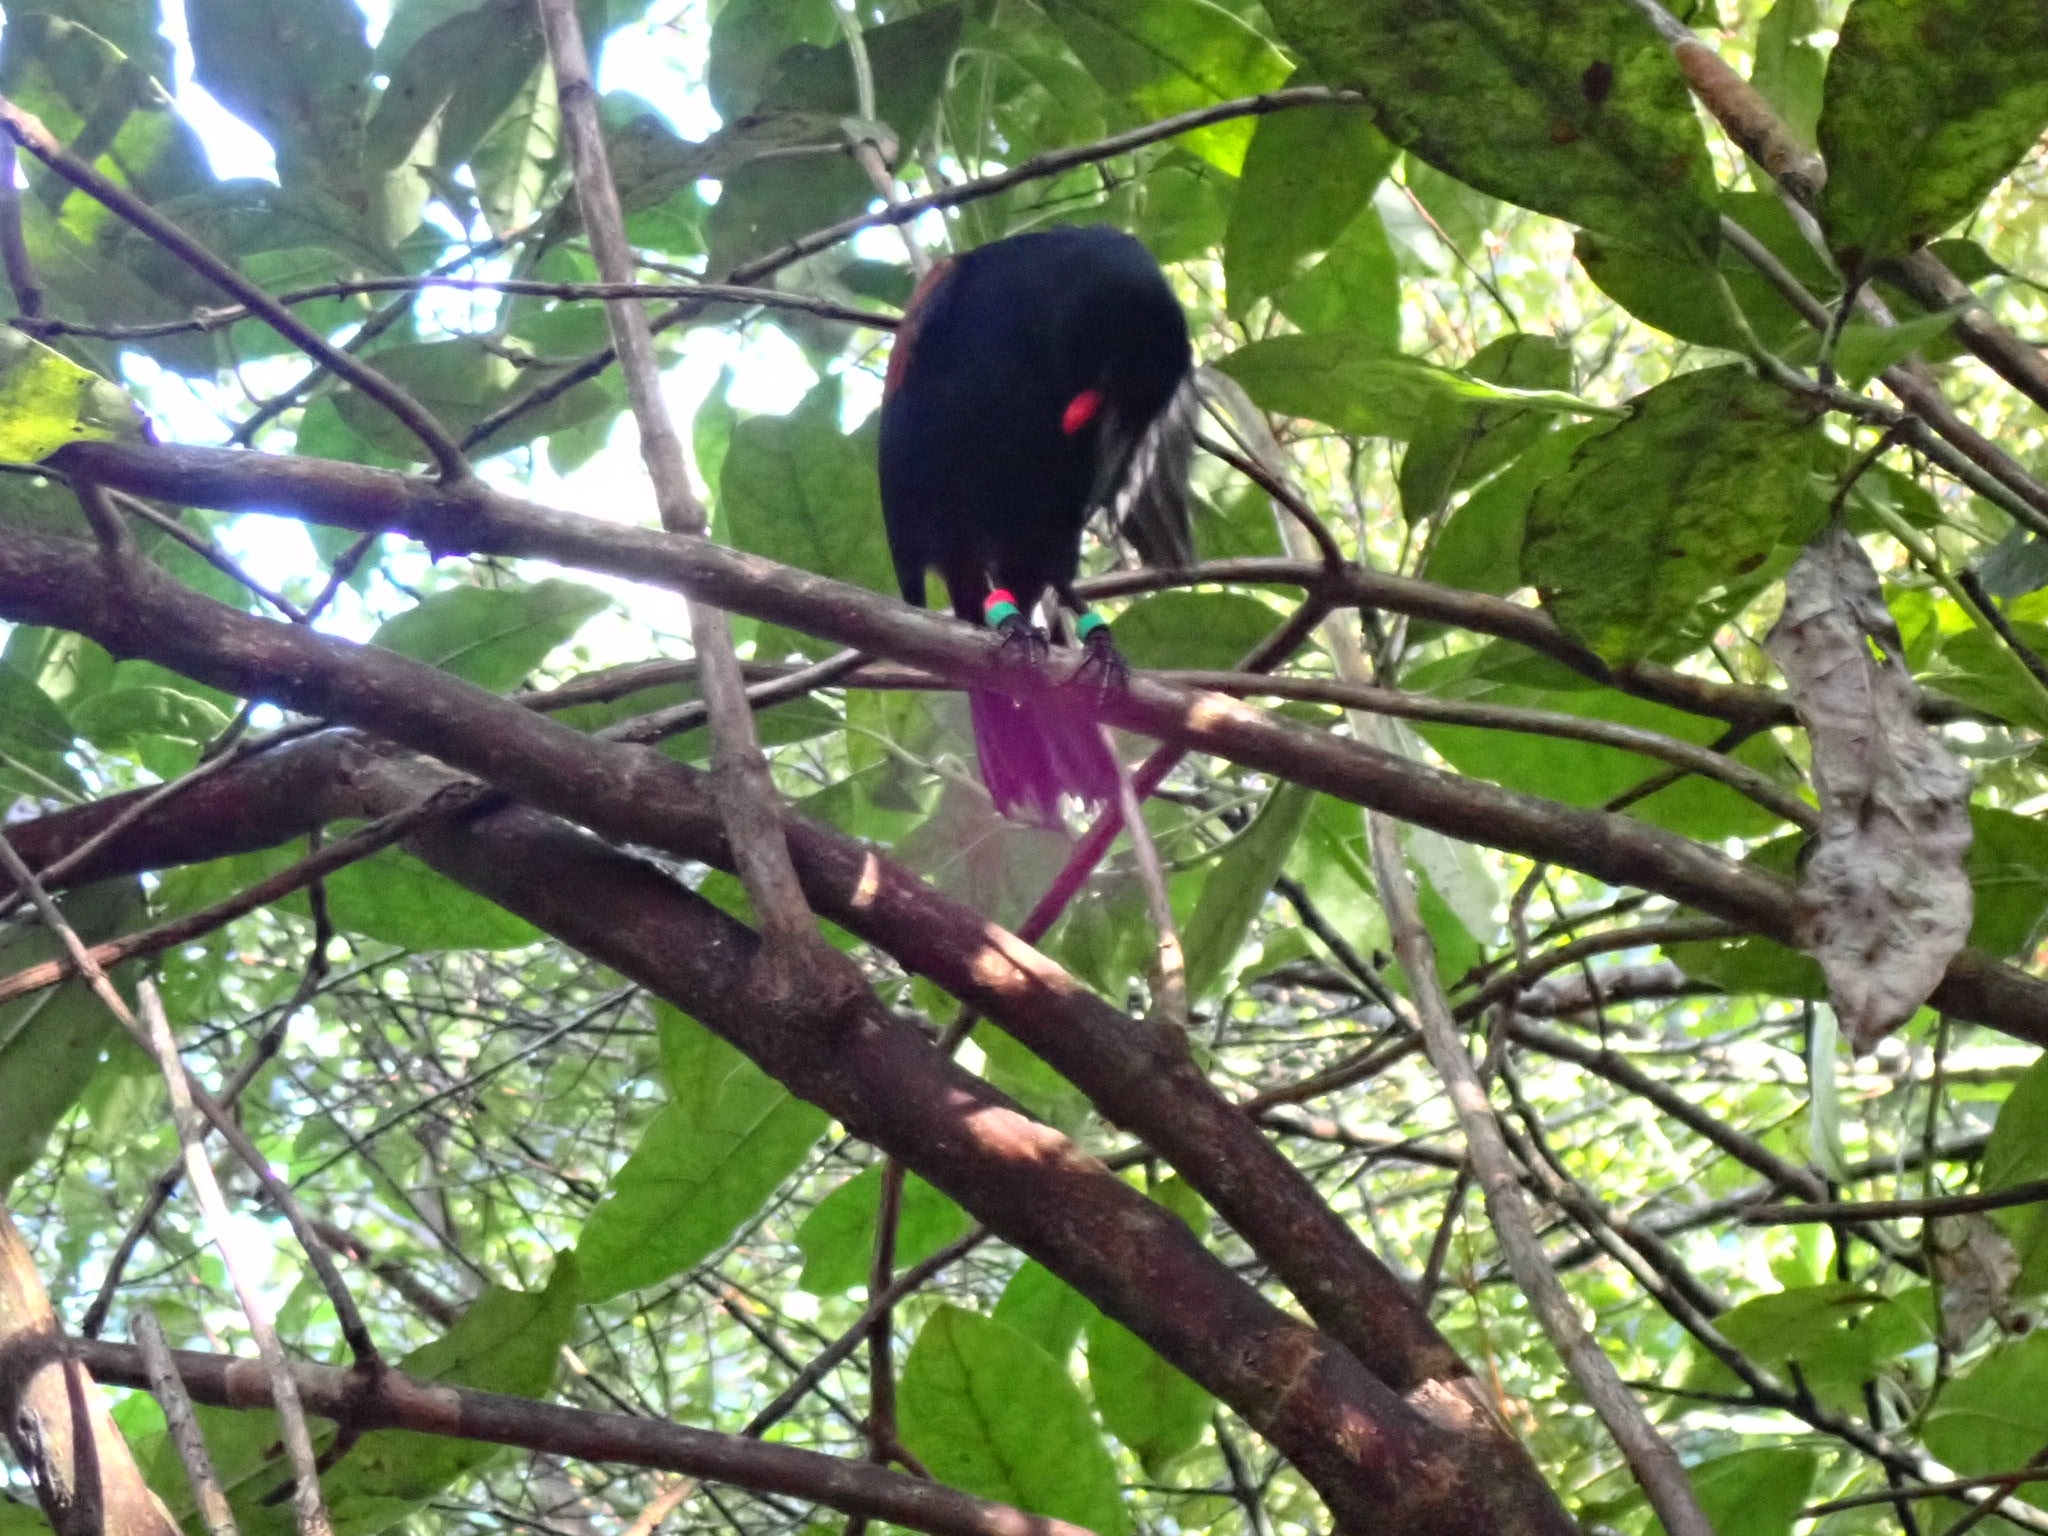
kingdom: Animalia
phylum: Chordata
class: Aves
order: Passeriformes
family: Callaeatidae
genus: Philesturnus
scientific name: Philesturnus carunculatus
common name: South island saddleback
